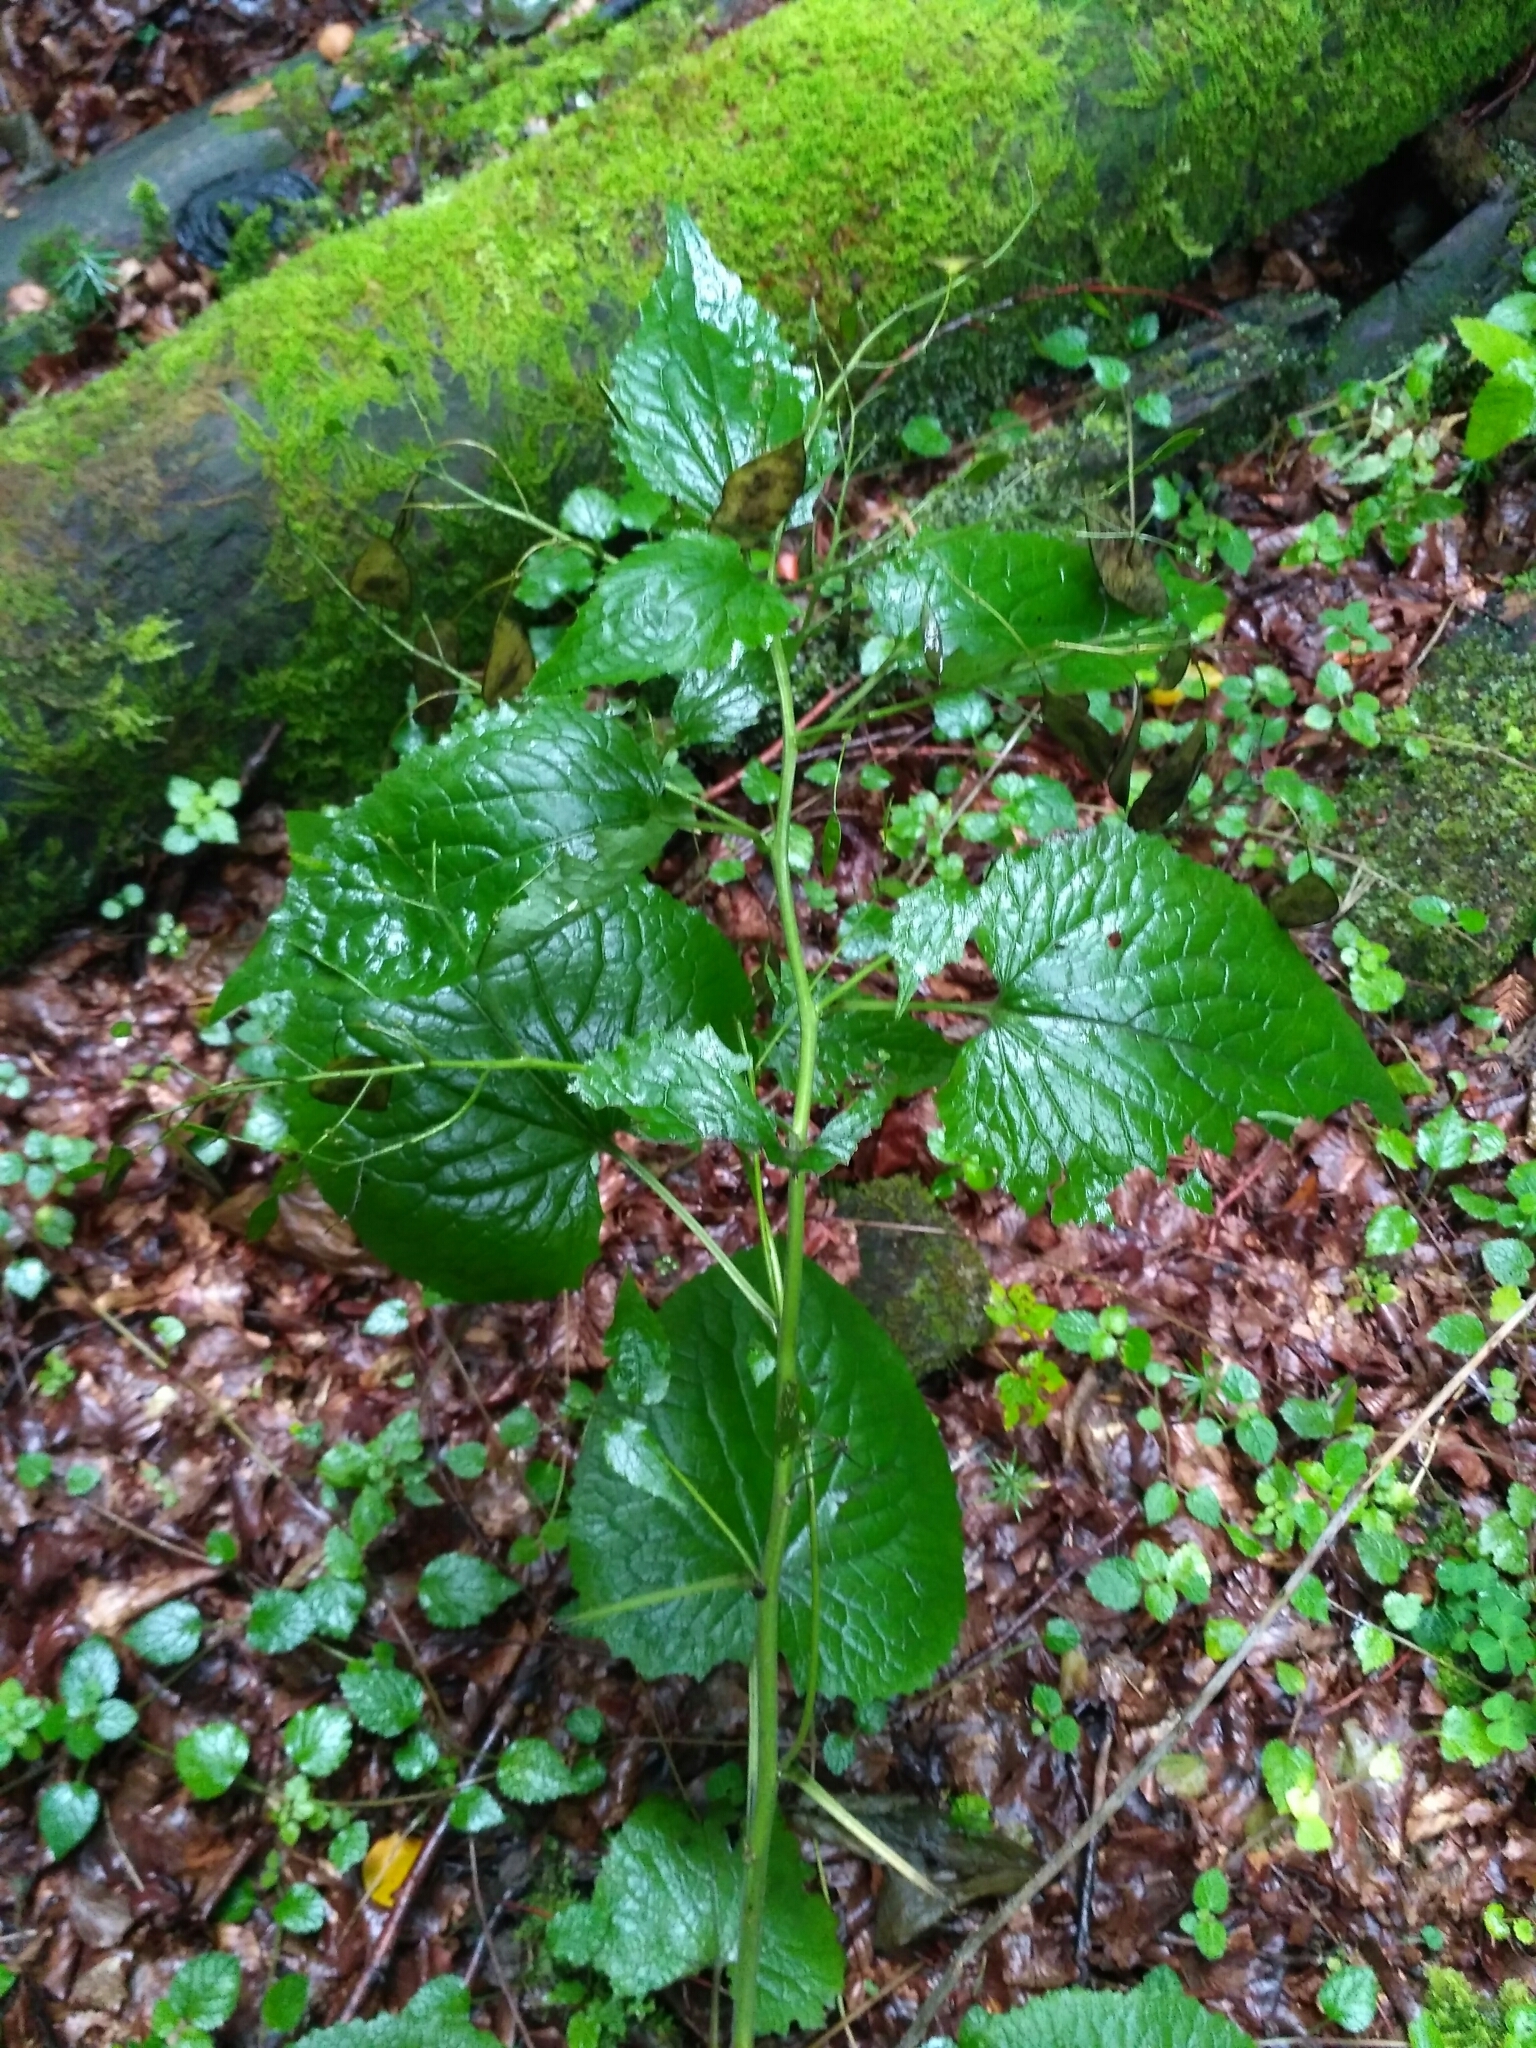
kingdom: Plantae
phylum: Tracheophyta
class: Magnoliopsida
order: Brassicales
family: Brassicaceae
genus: Lunaria
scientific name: Lunaria rediviva
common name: Perennial honesty
